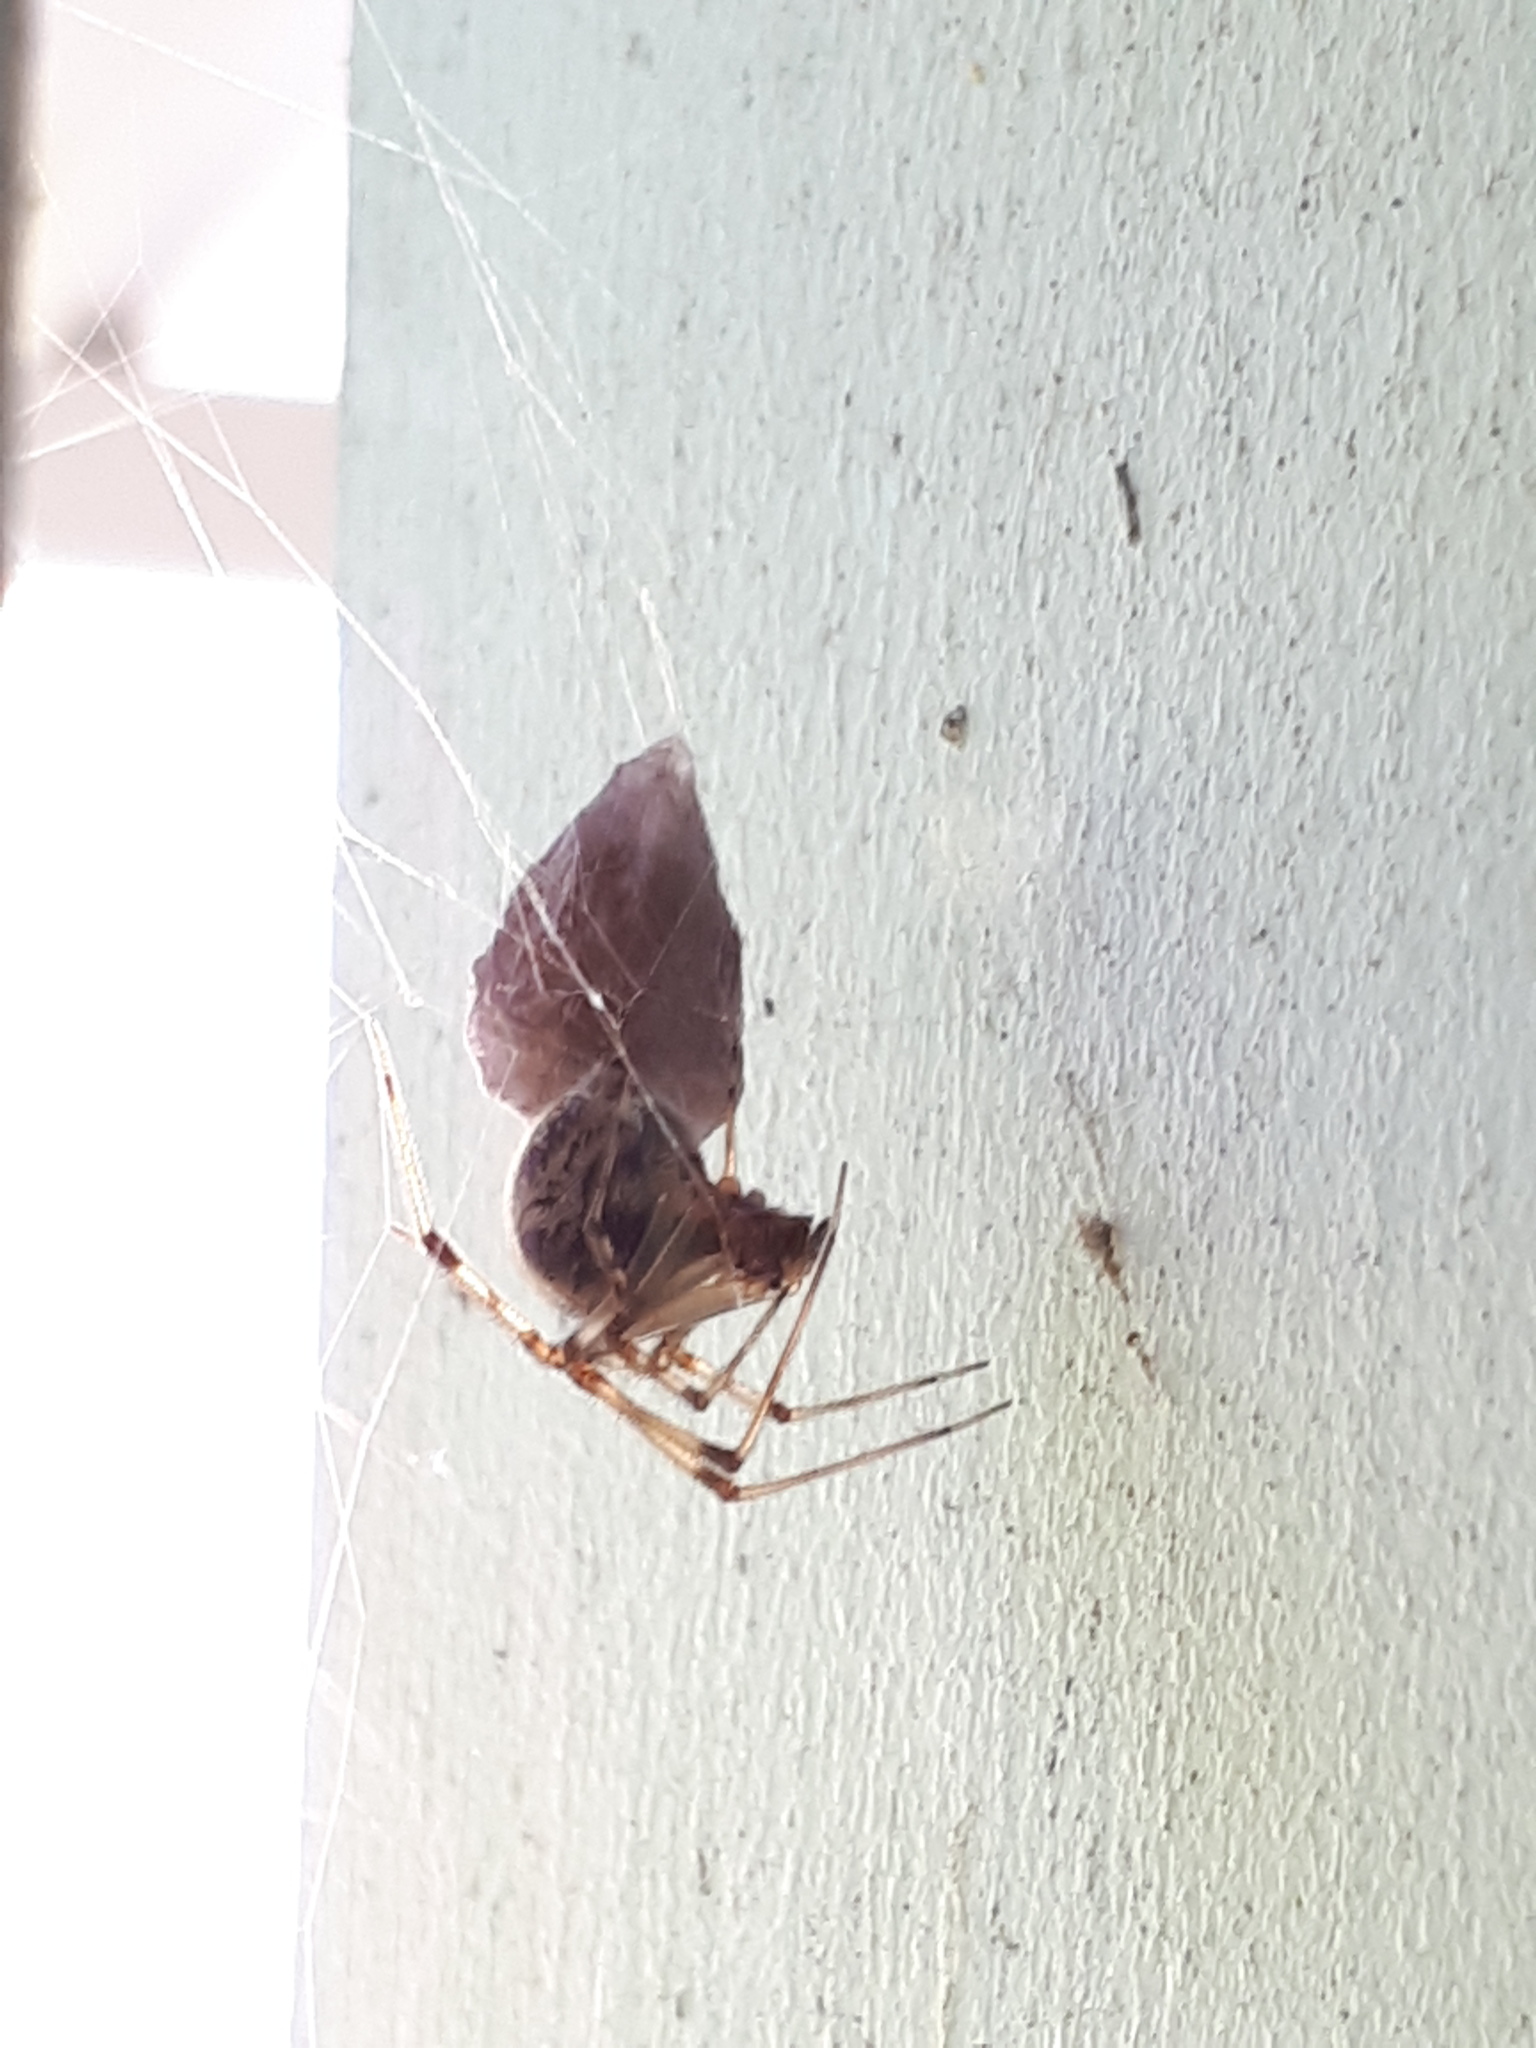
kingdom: Animalia
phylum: Arthropoda
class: Arachnida
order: Araneae
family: Theridiidae
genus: Parasteatoda
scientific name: Parasteatoda tepidariorum
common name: Common house spider
